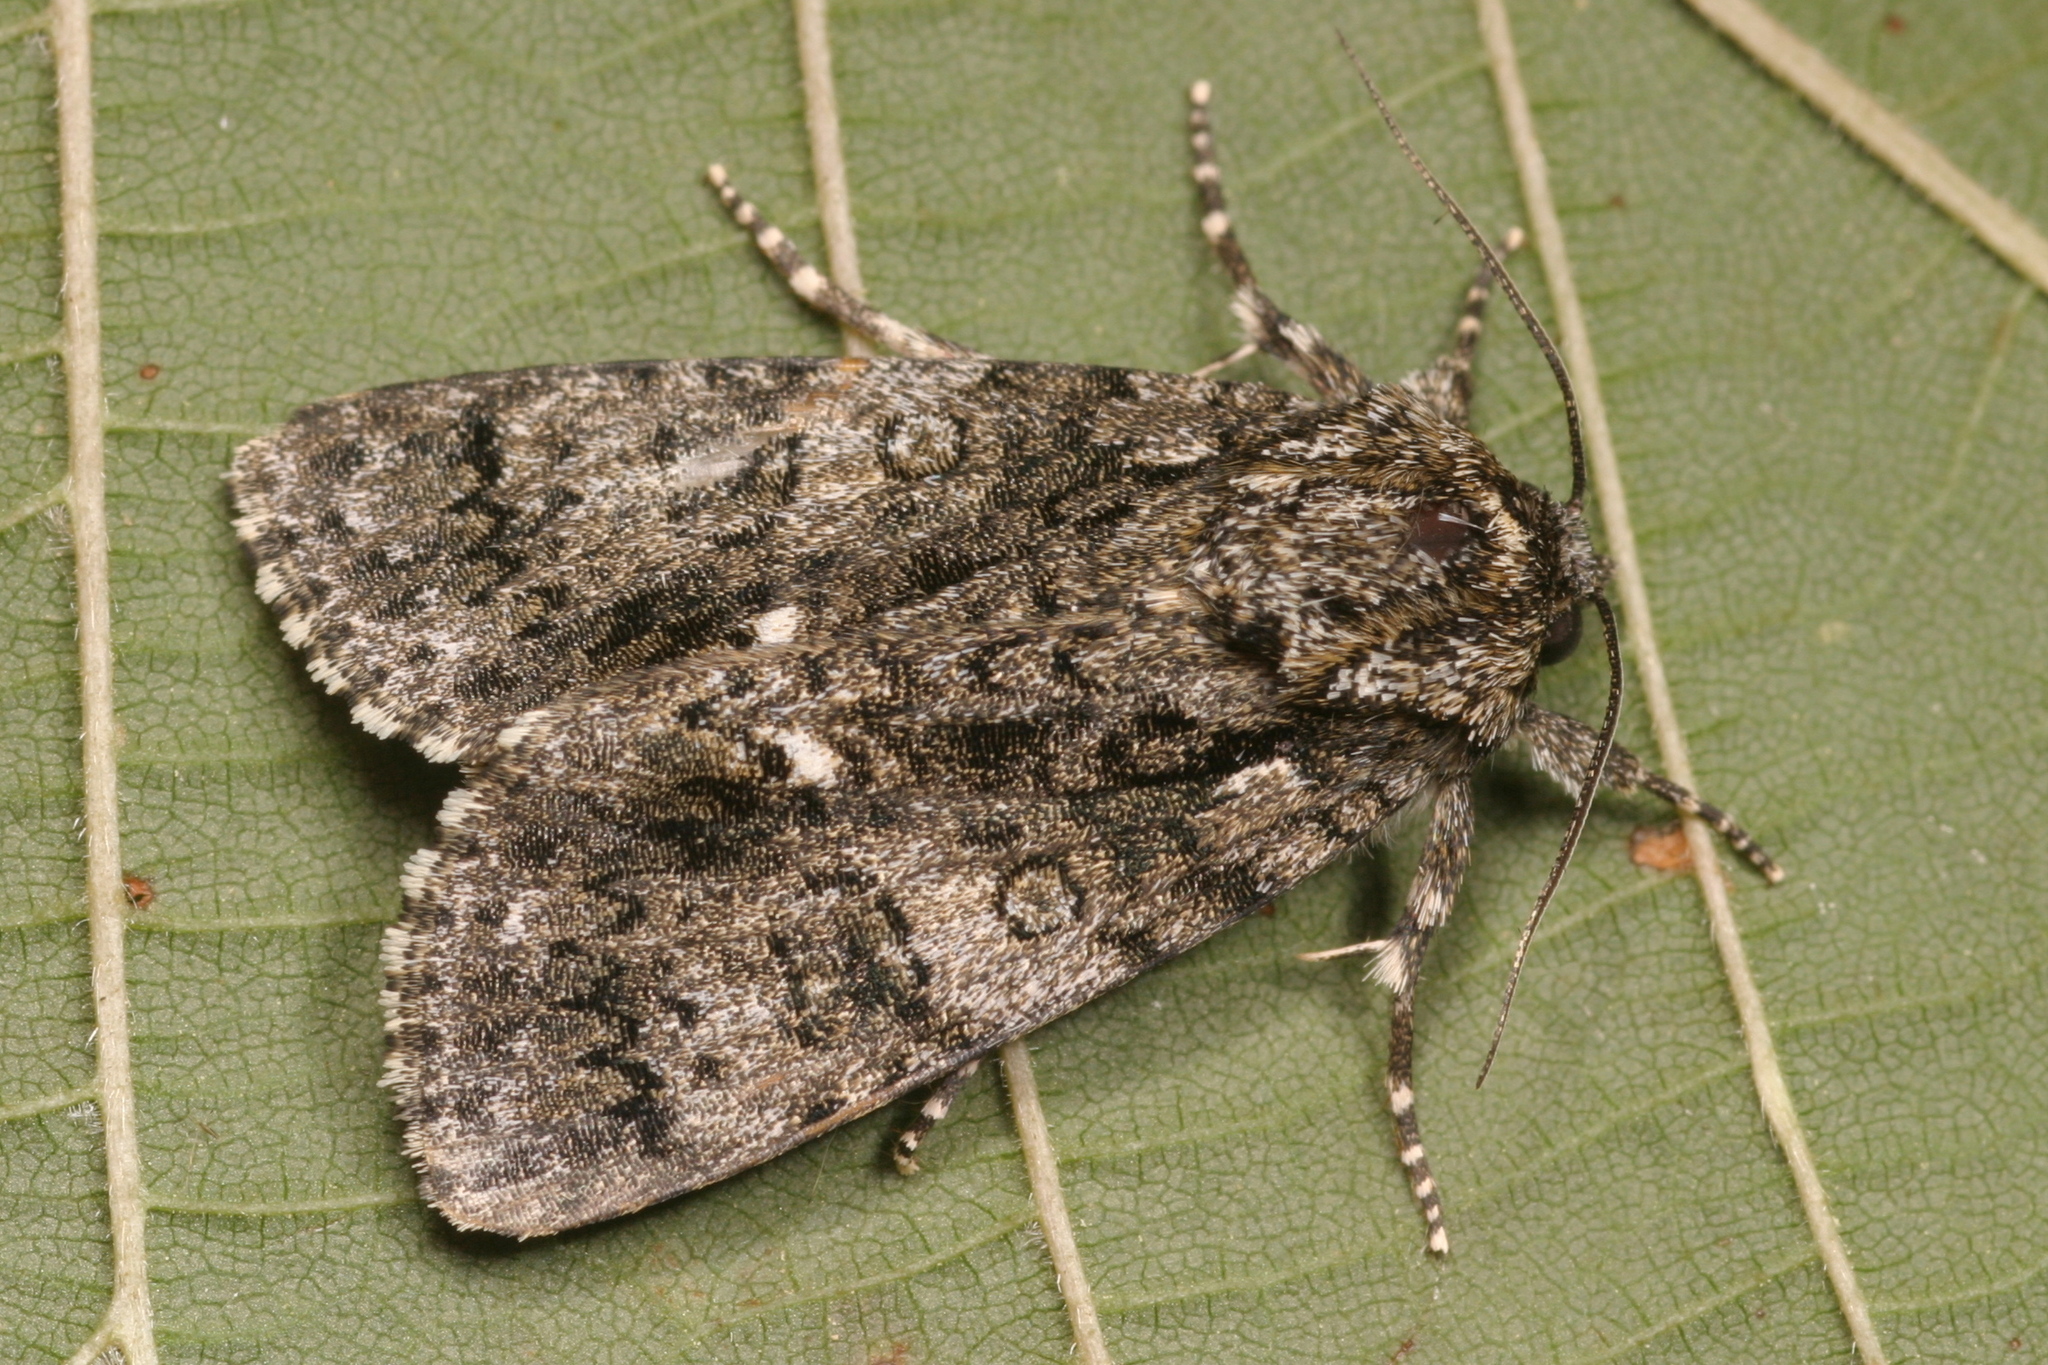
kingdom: Animalia
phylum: Arthropoda
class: Insecta
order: Lepidoptera
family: Noctuidae
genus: Acronicta
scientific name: Acronicta rumicis
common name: Knot grass
